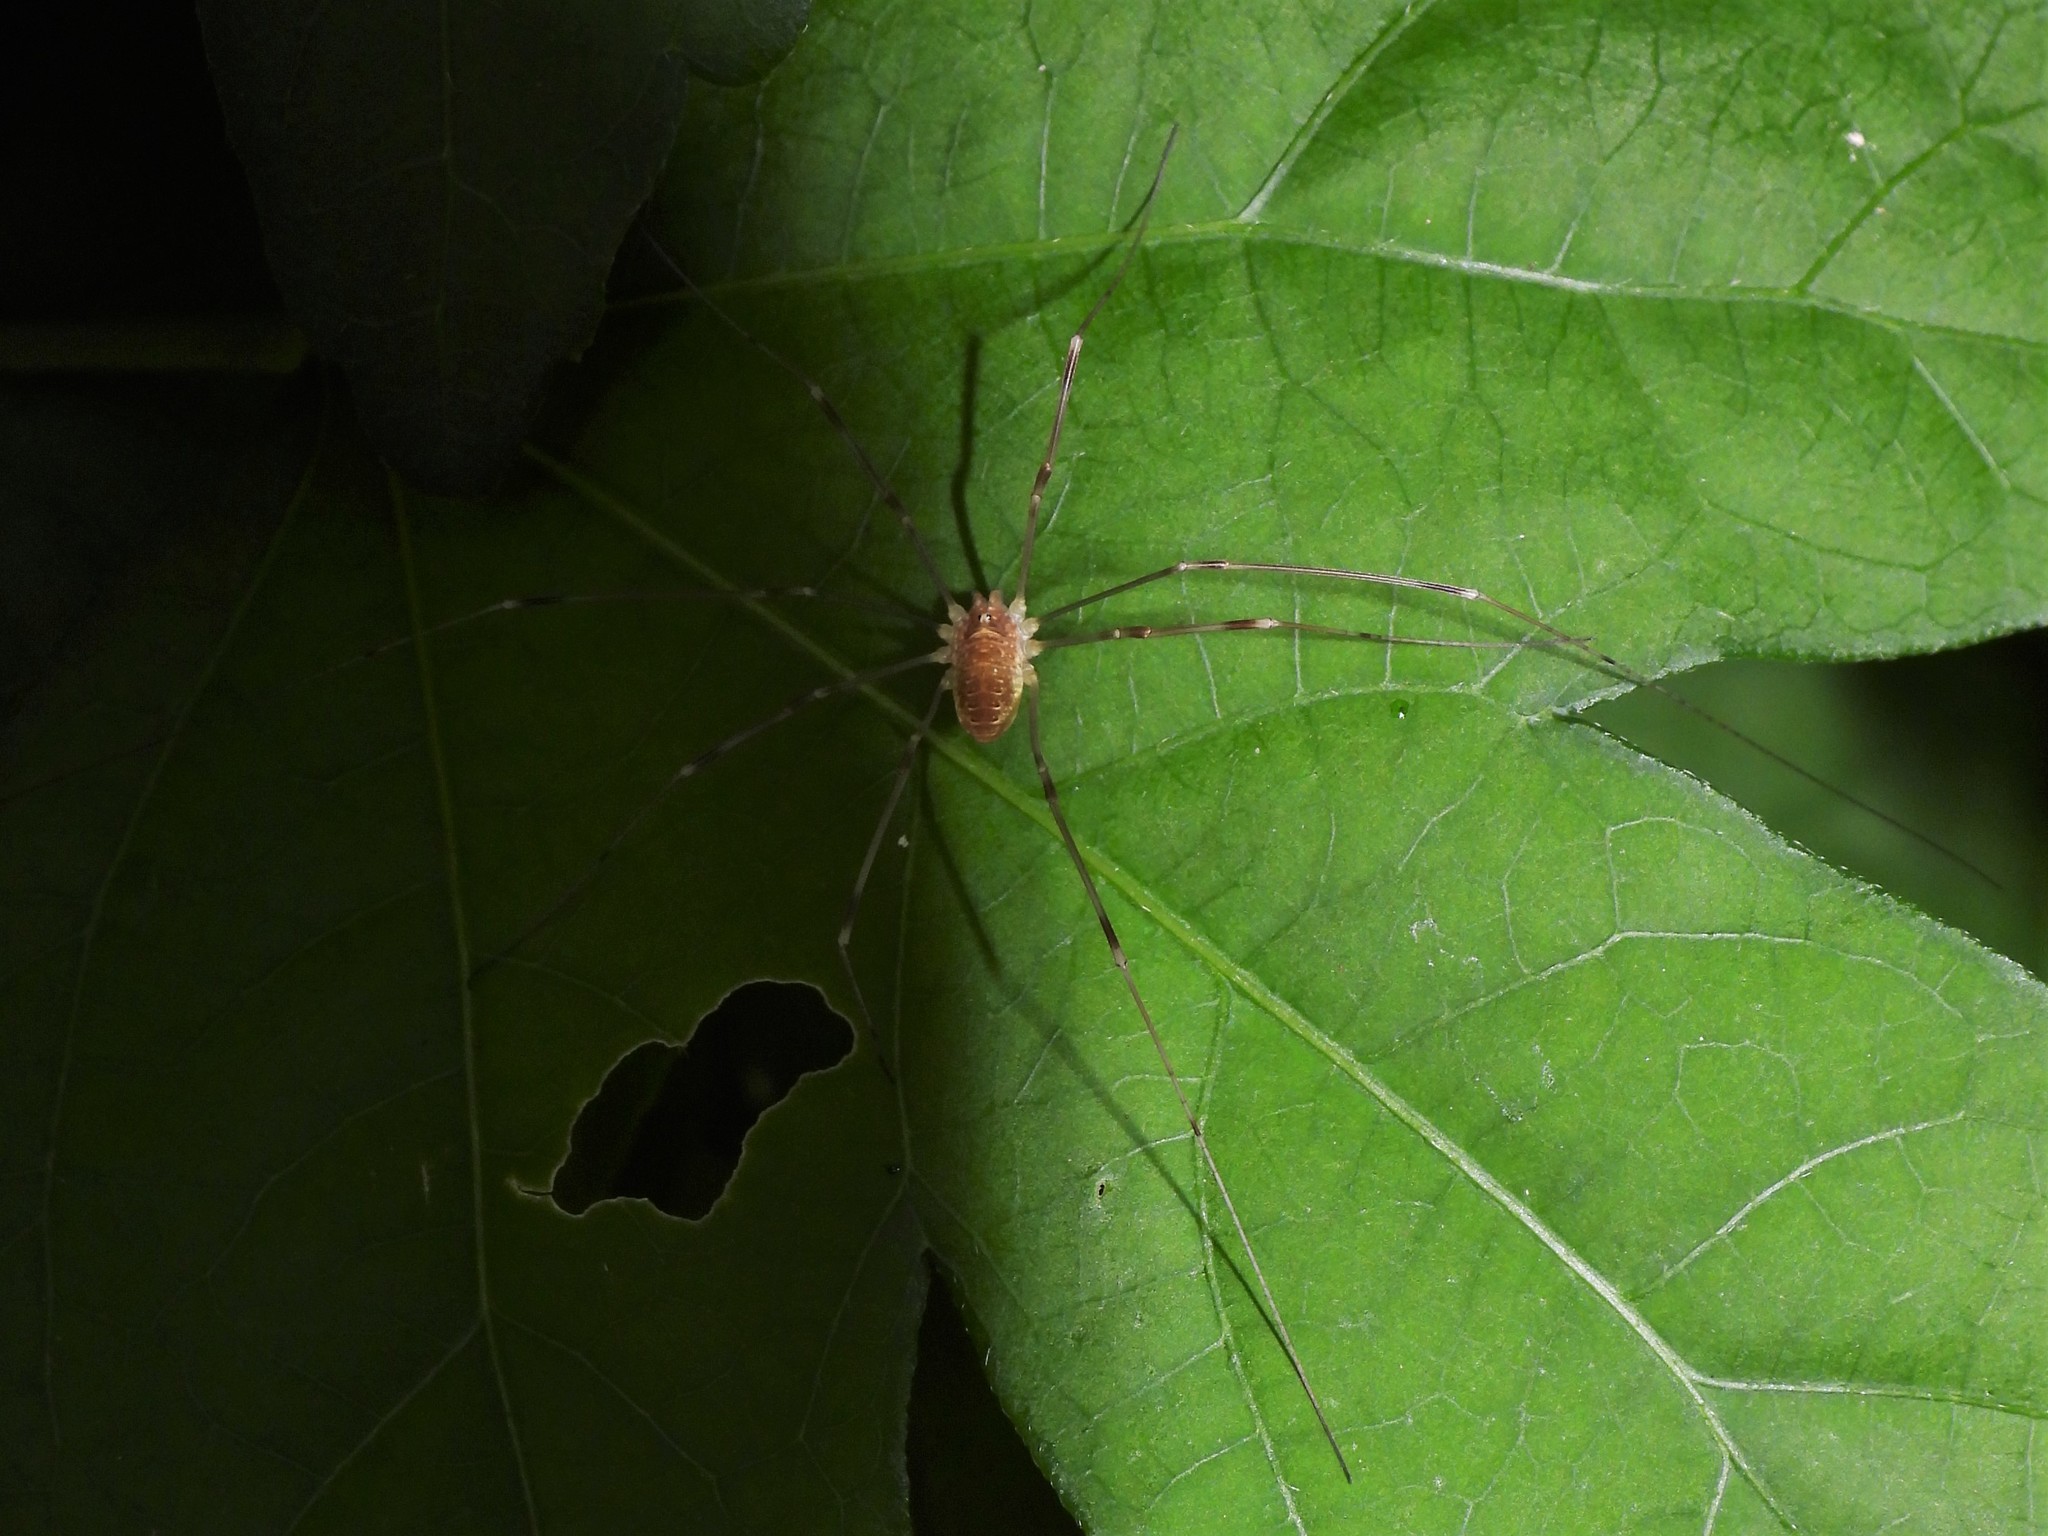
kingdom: Animalia
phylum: Arthropoda
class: Arachnida
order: Opiliones
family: Phalangiidae
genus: Opilio
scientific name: Opilio canestrinii
